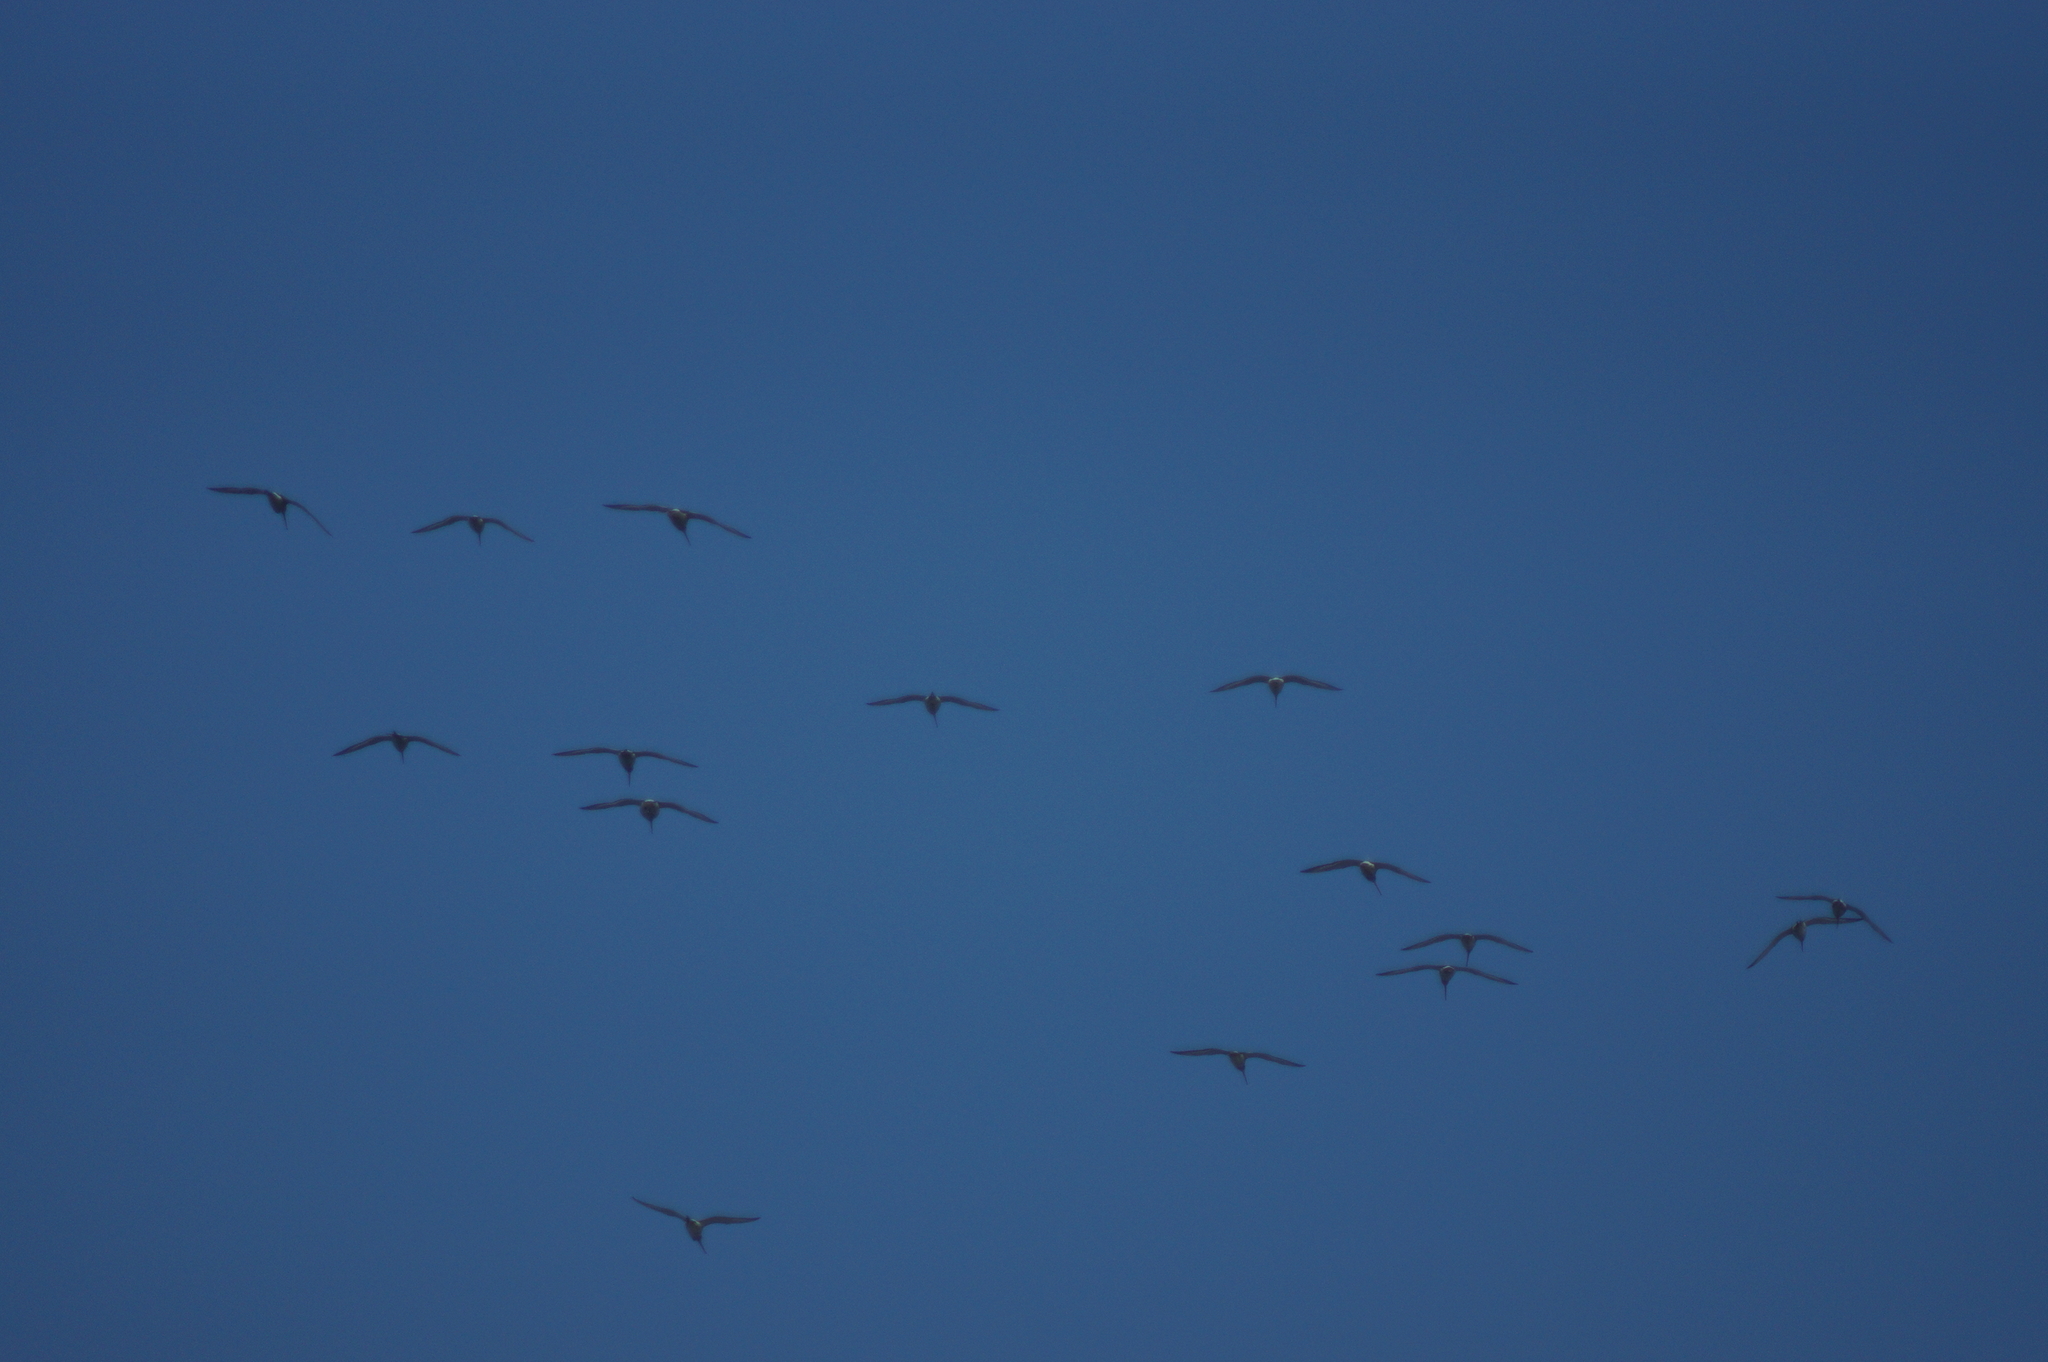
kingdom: Animalia
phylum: Chordata
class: Aves
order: Charadriiformes
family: Scolopacidae
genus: Limosa
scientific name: Limosa limosa
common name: Black-tailed godwit
